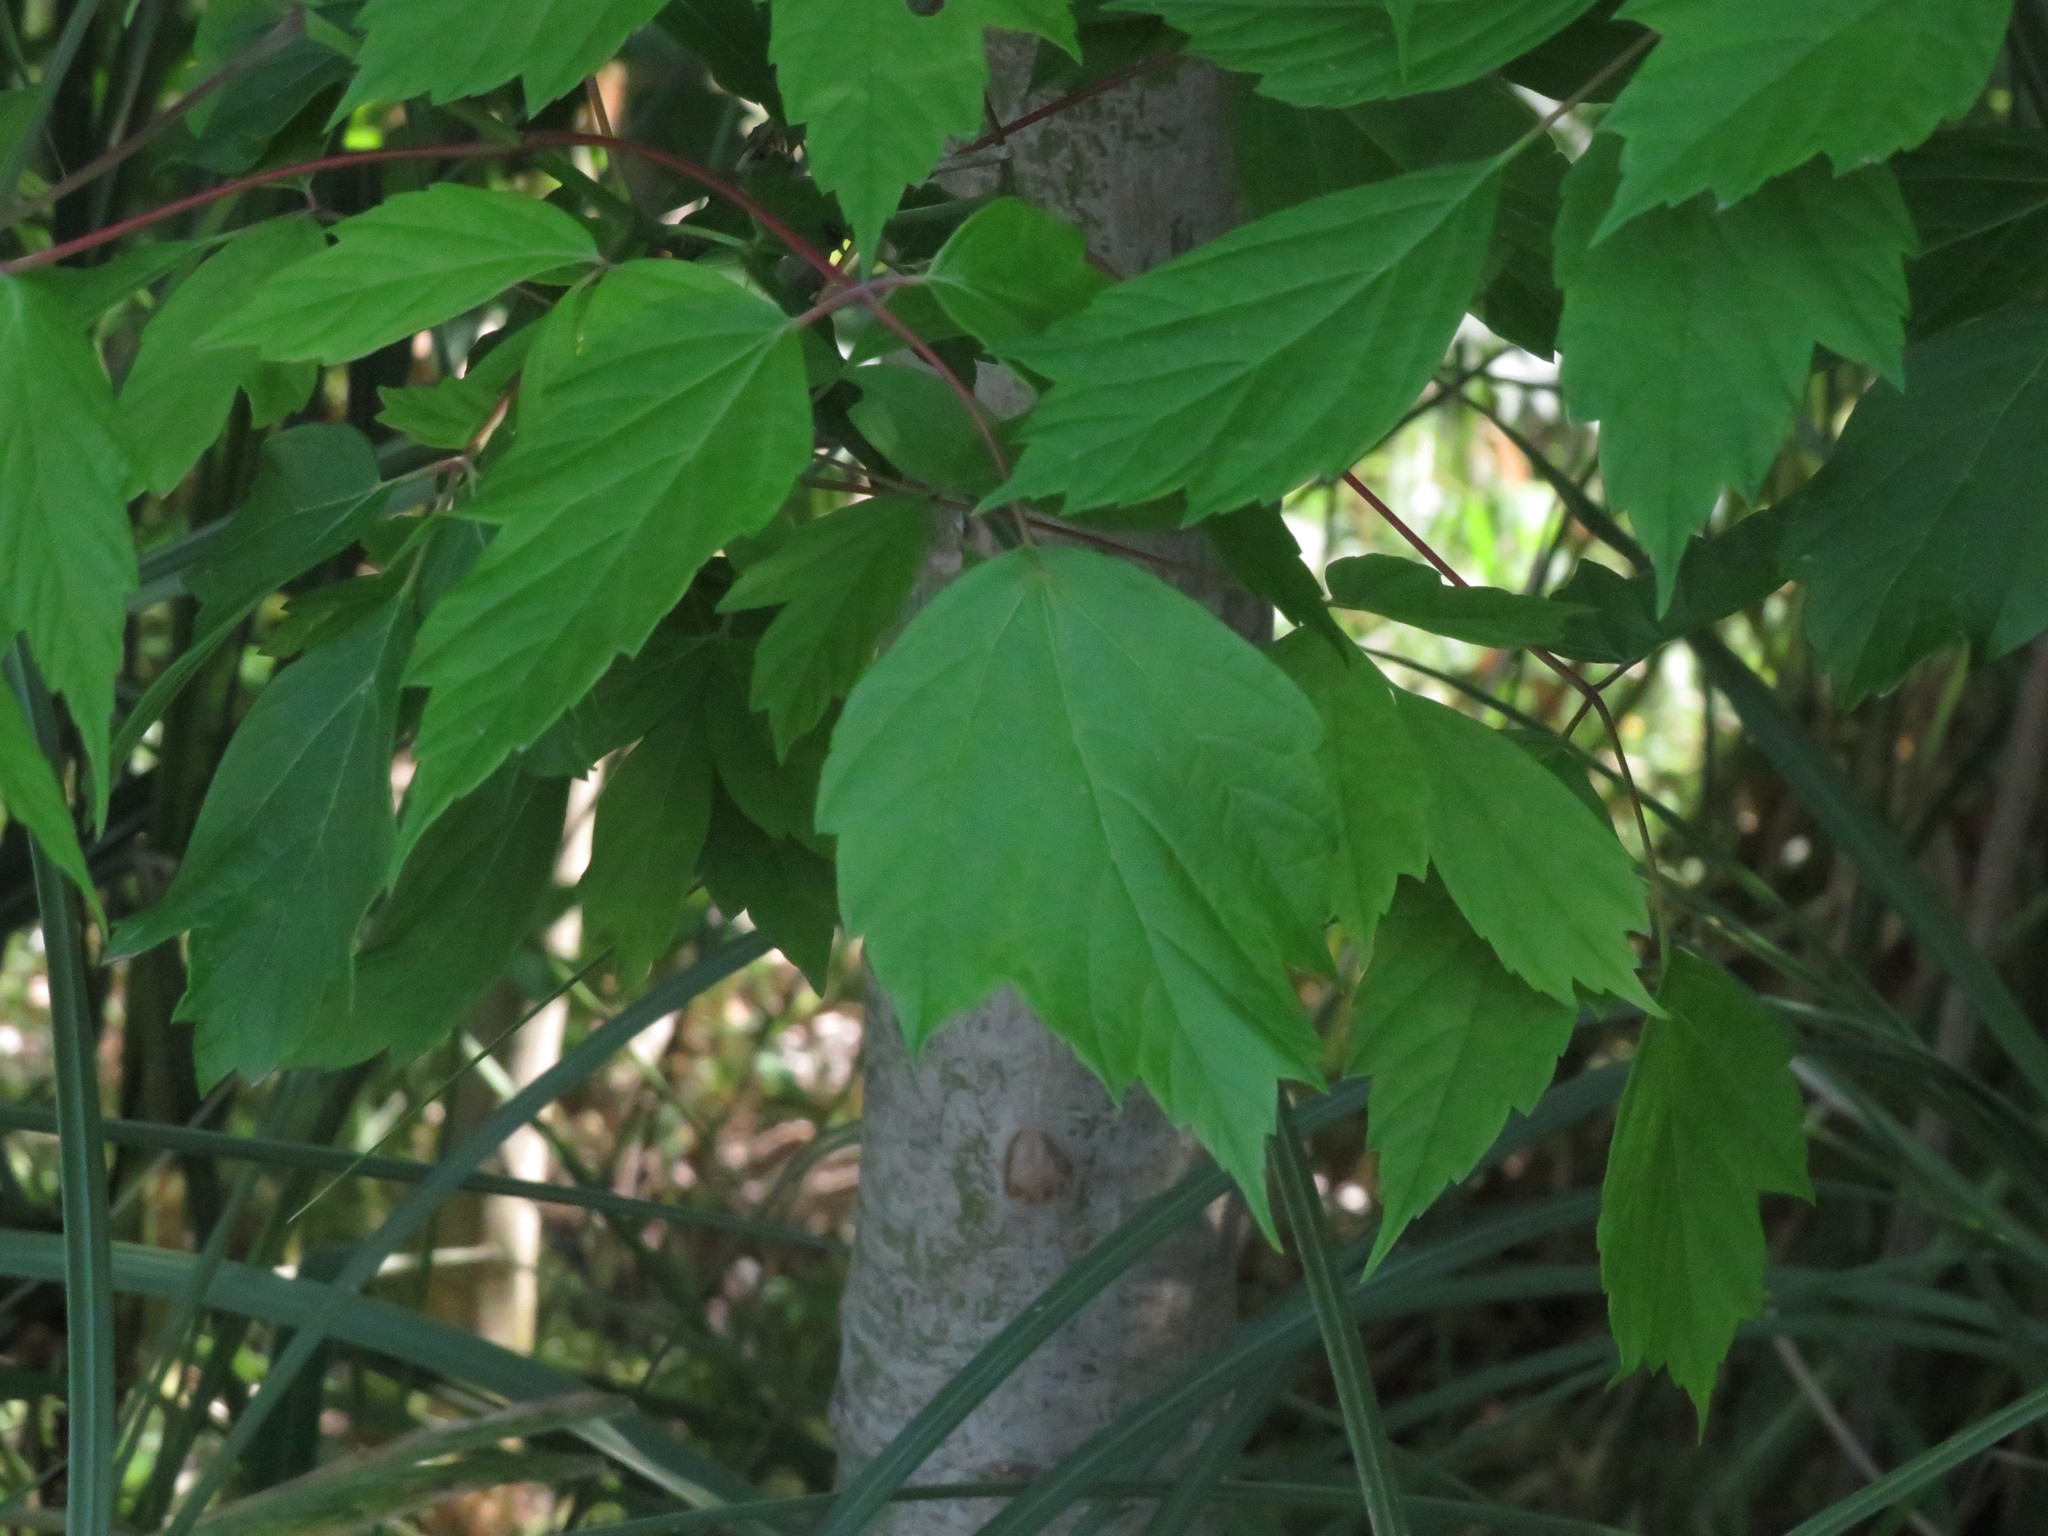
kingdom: Plantae
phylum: Tracheophyta
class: Magnoliopsida
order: Sapindales
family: Sapindaceae
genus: Acer
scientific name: Acer negundo
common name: Ashleaf maple
